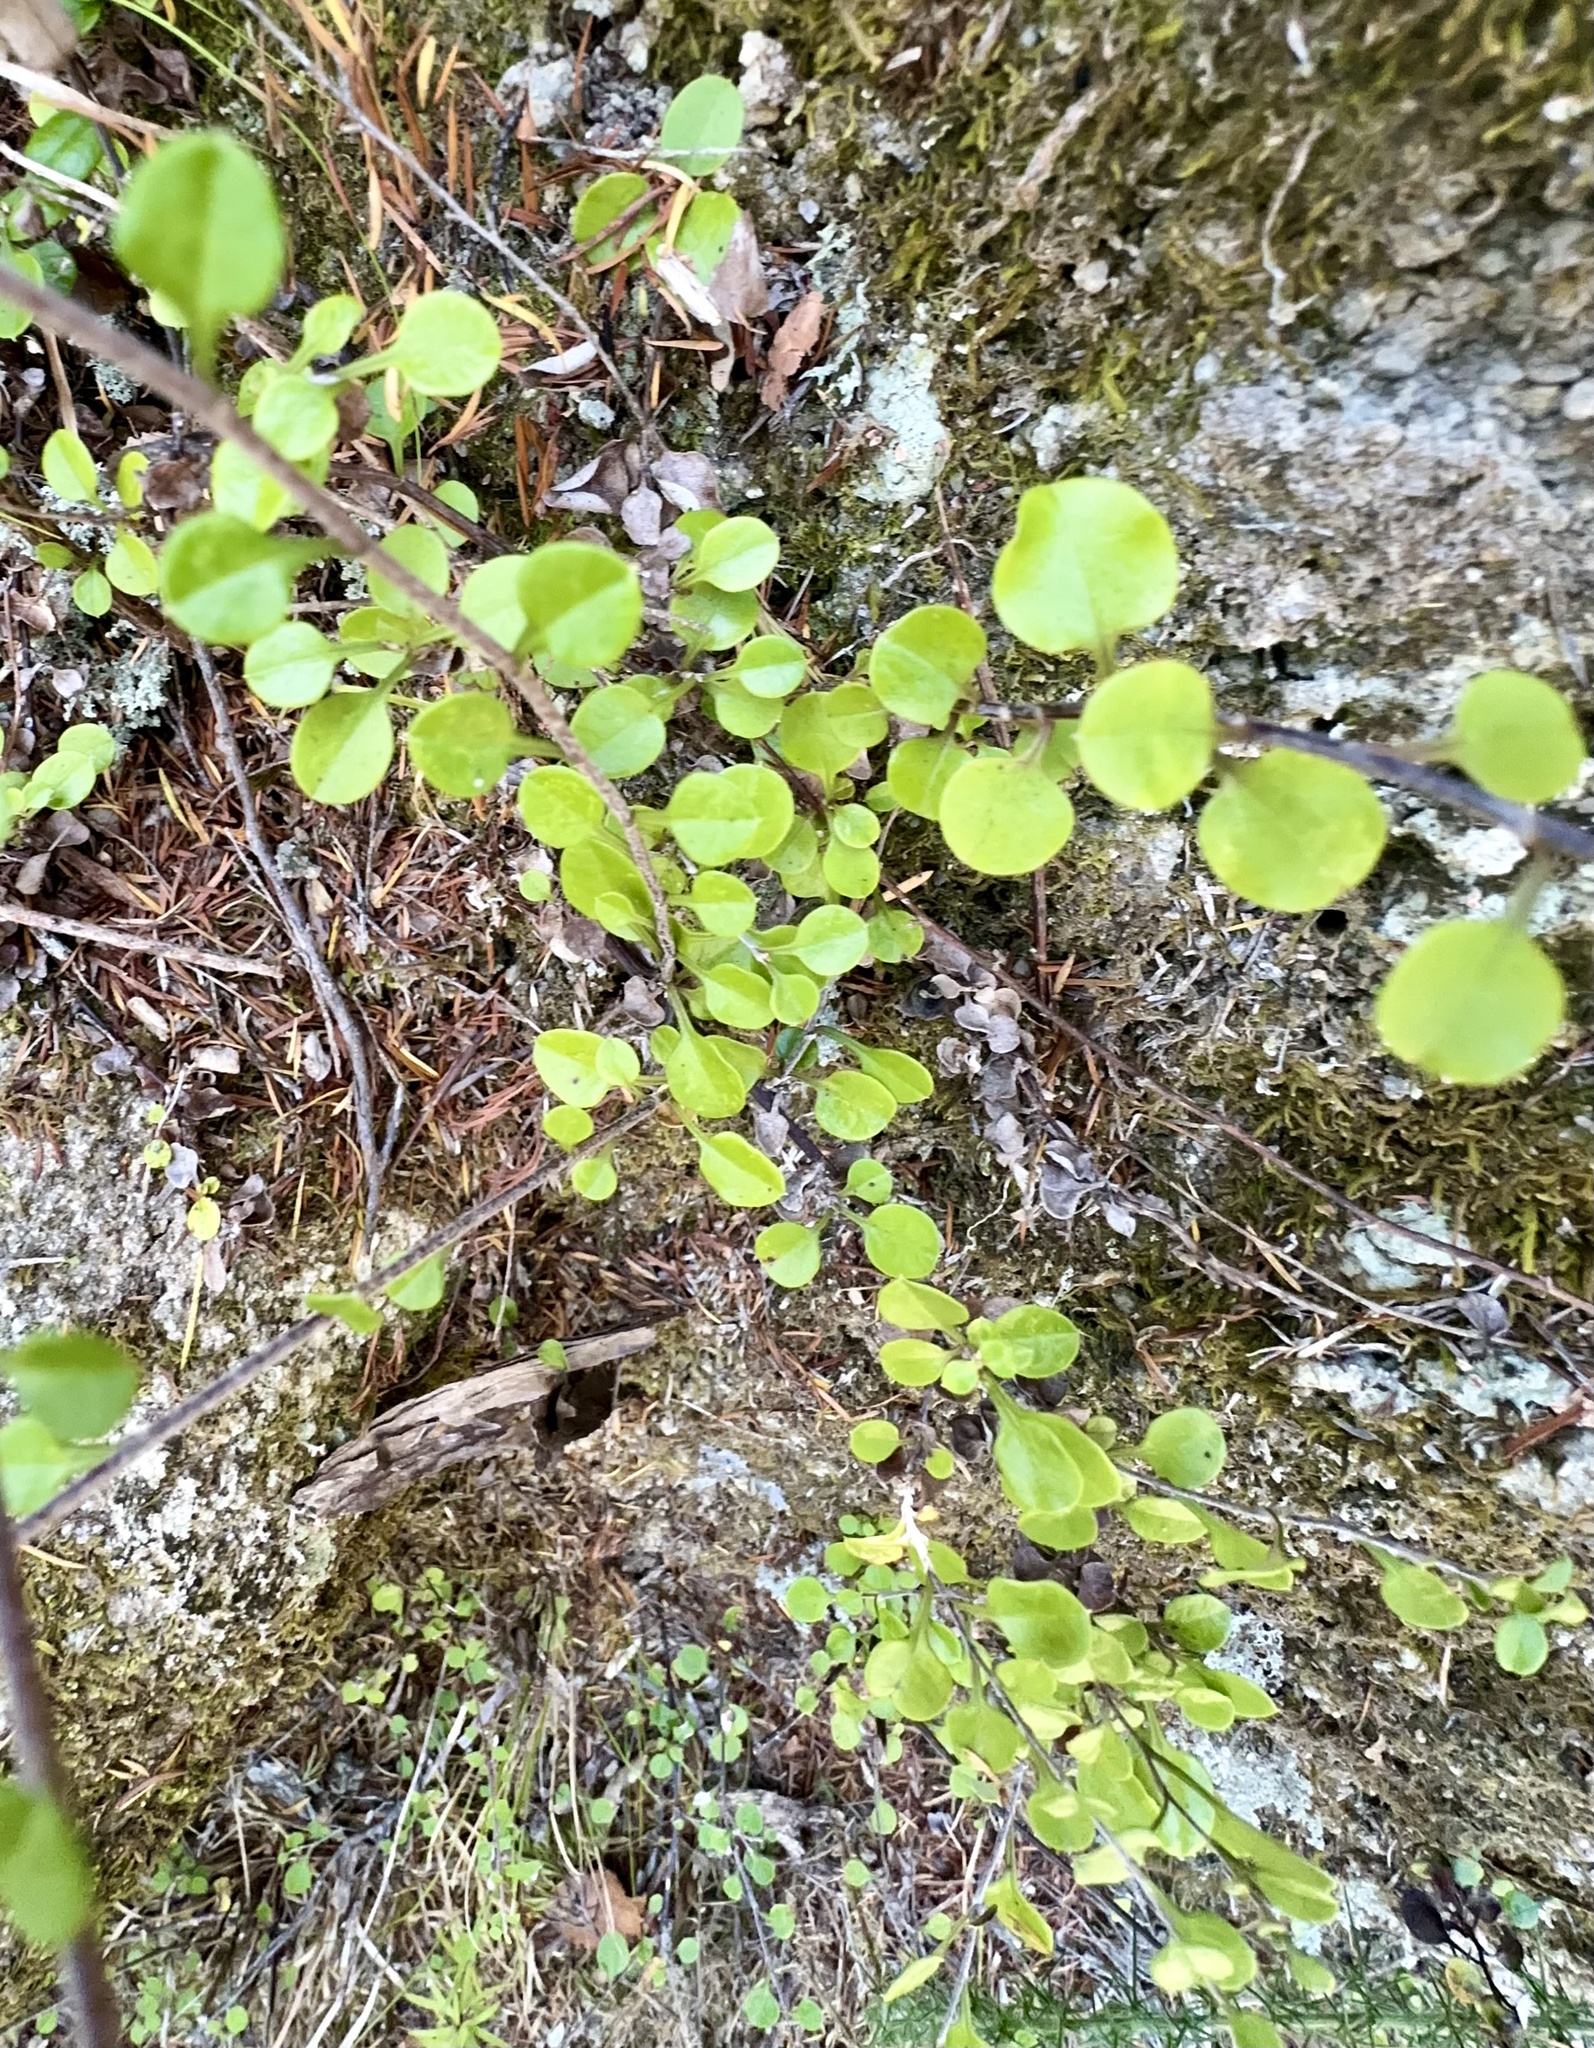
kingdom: Plantae
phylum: Tracheophyta
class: Magnoliopsida
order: Asterales
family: Asteraceae
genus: Ozothamnus
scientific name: Ozothamnus glomeratus
